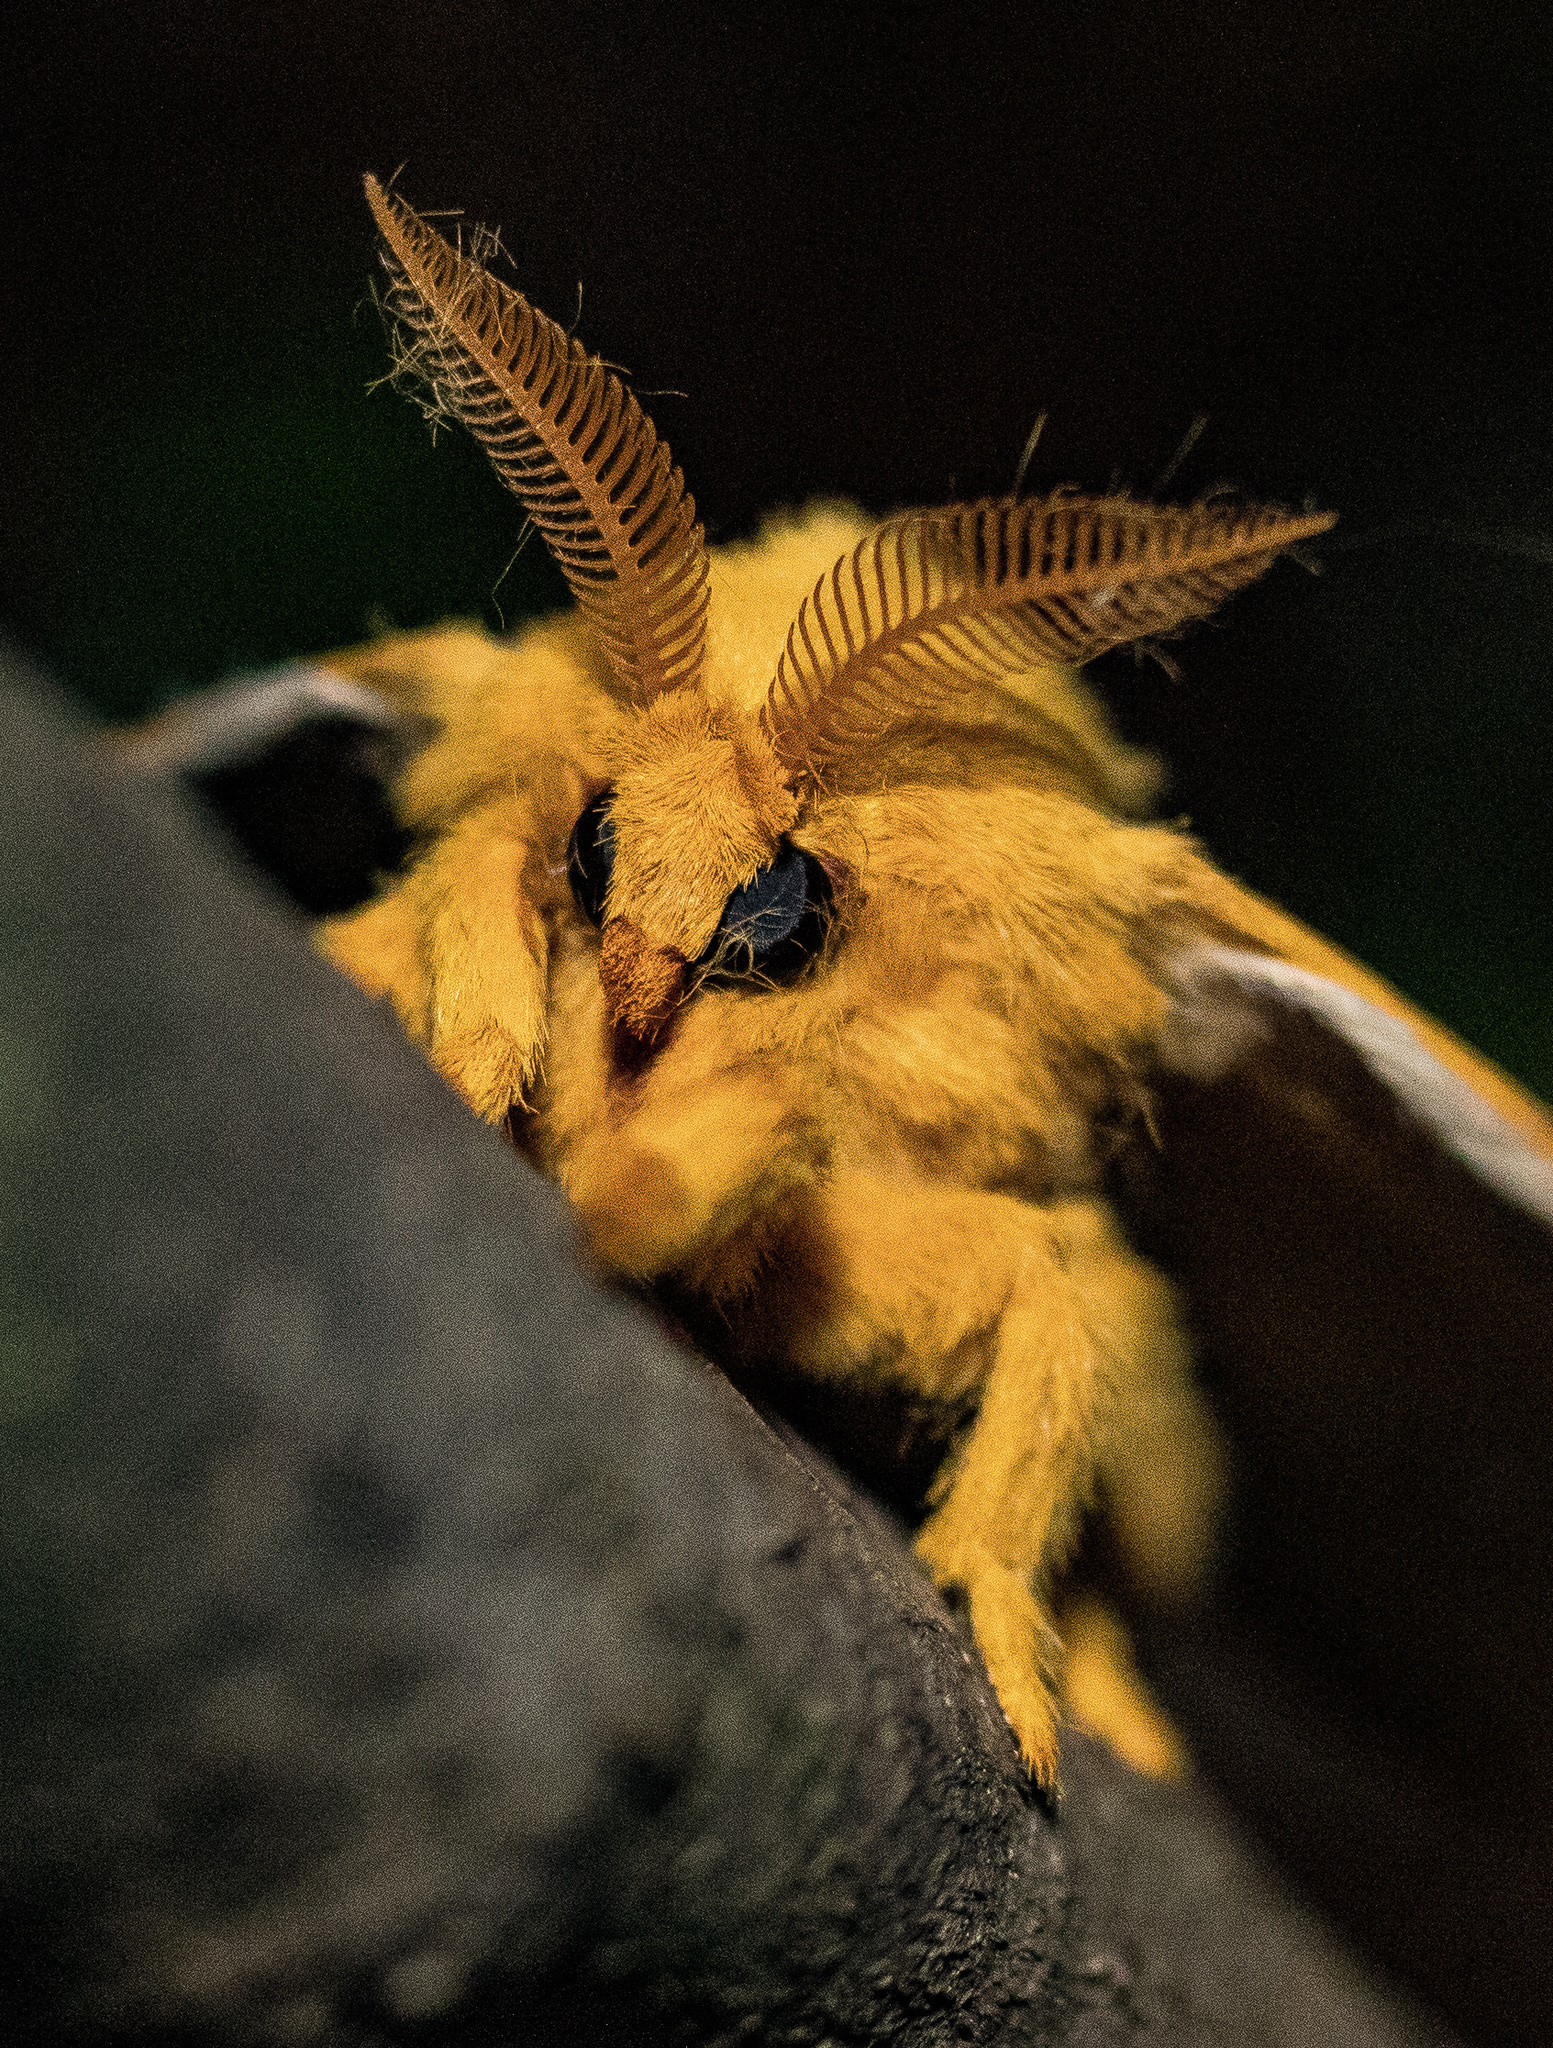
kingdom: Animalia
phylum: Arthropoda
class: Insecta
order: Lepidoptera
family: Saturniidae
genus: Automeris
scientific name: Automeris io
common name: Io moth
